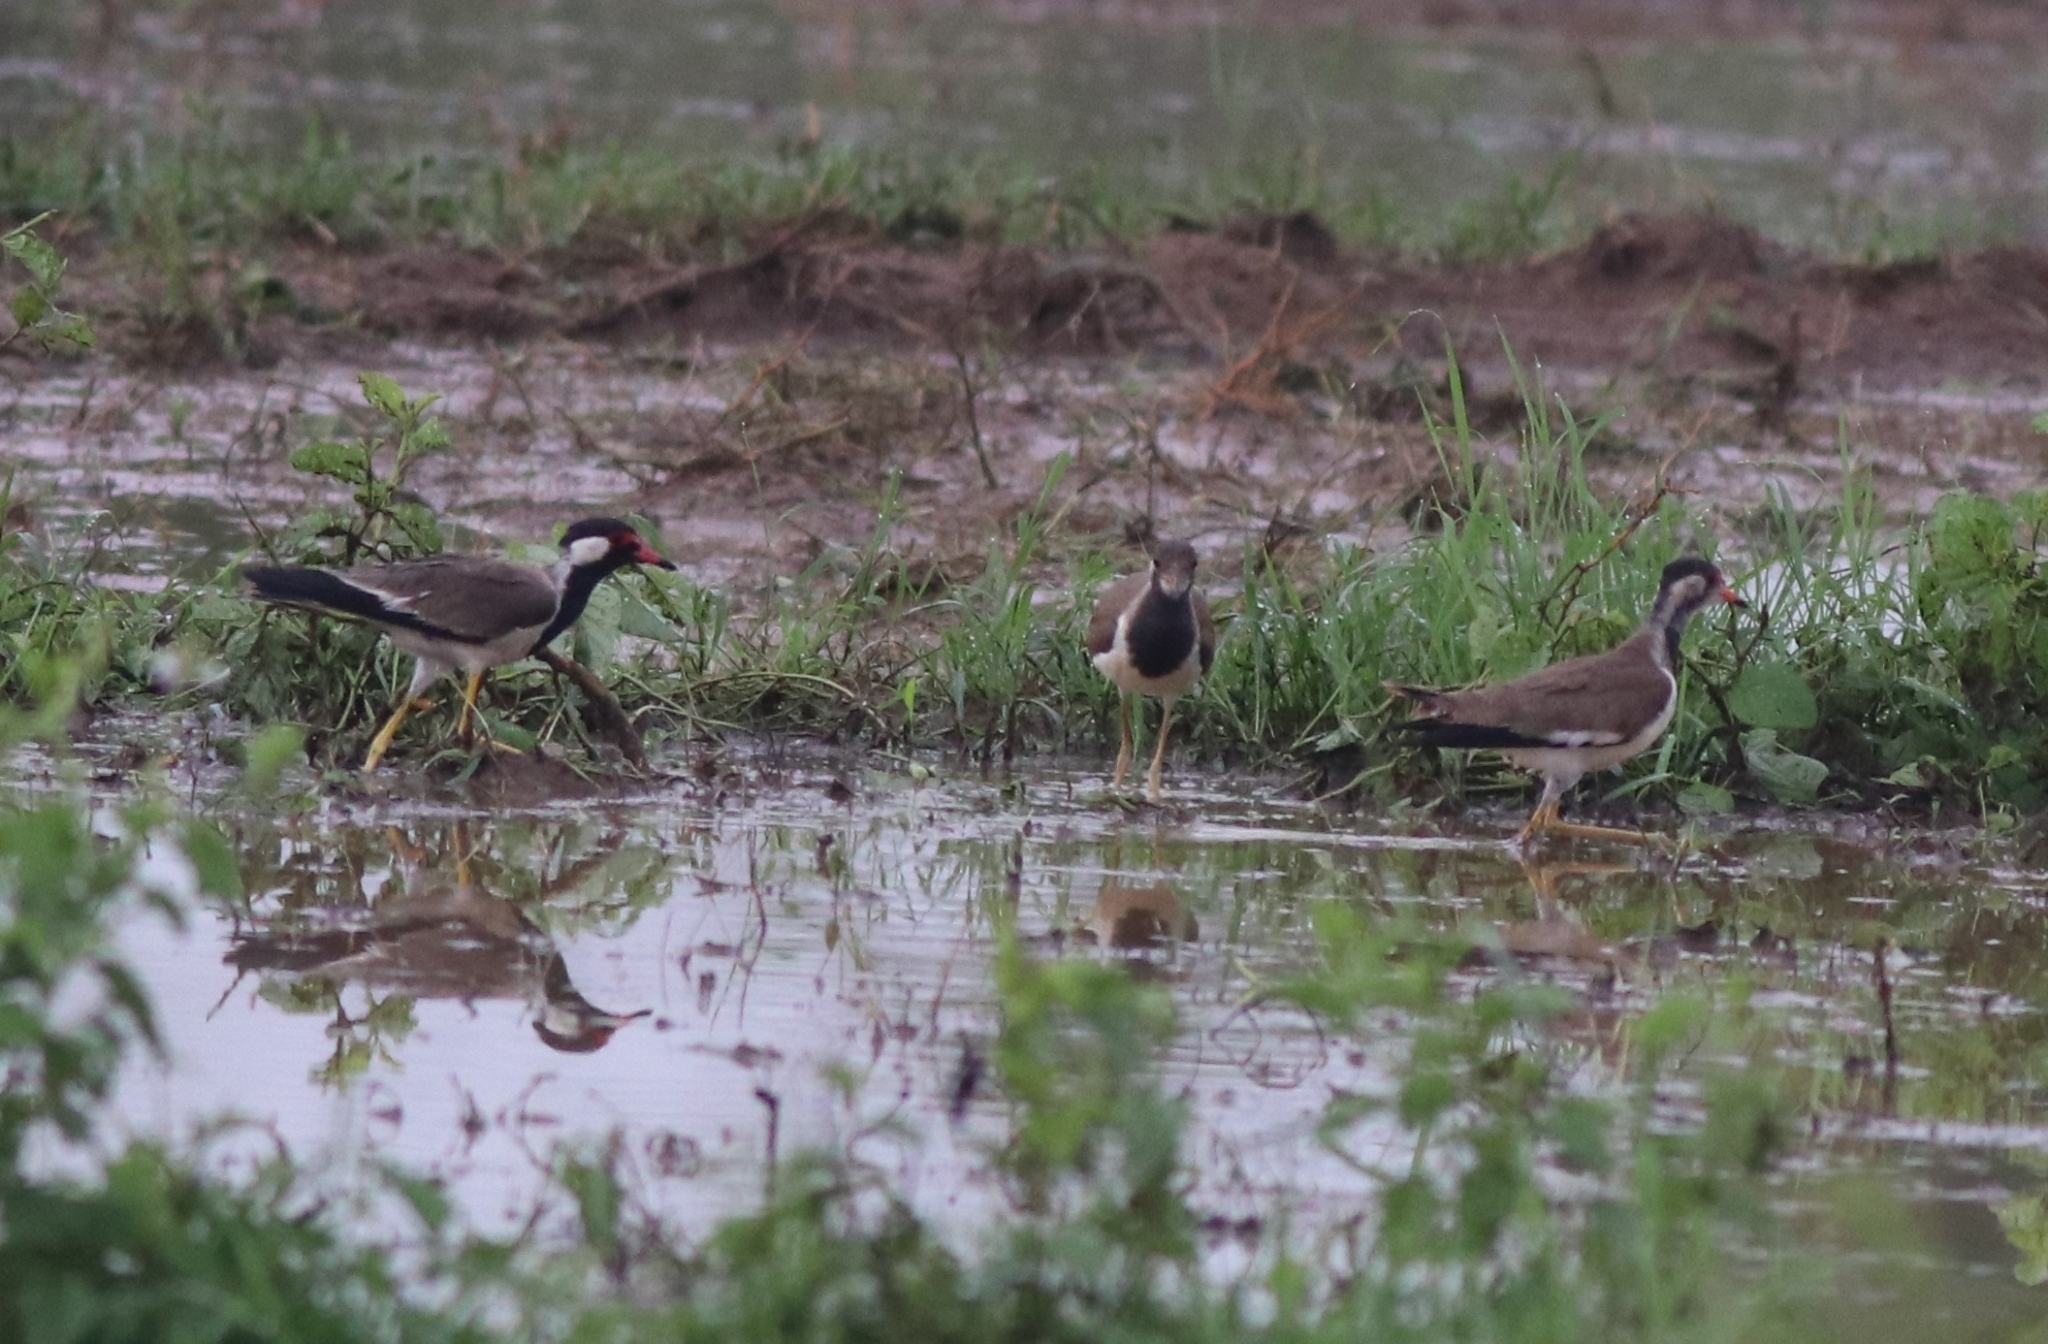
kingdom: Animalia
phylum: Chordata
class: Aves
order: Charadriiformes
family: Charadriidae
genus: Vanellus
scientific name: Vanellus indicus
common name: Red-wattled lapwing
